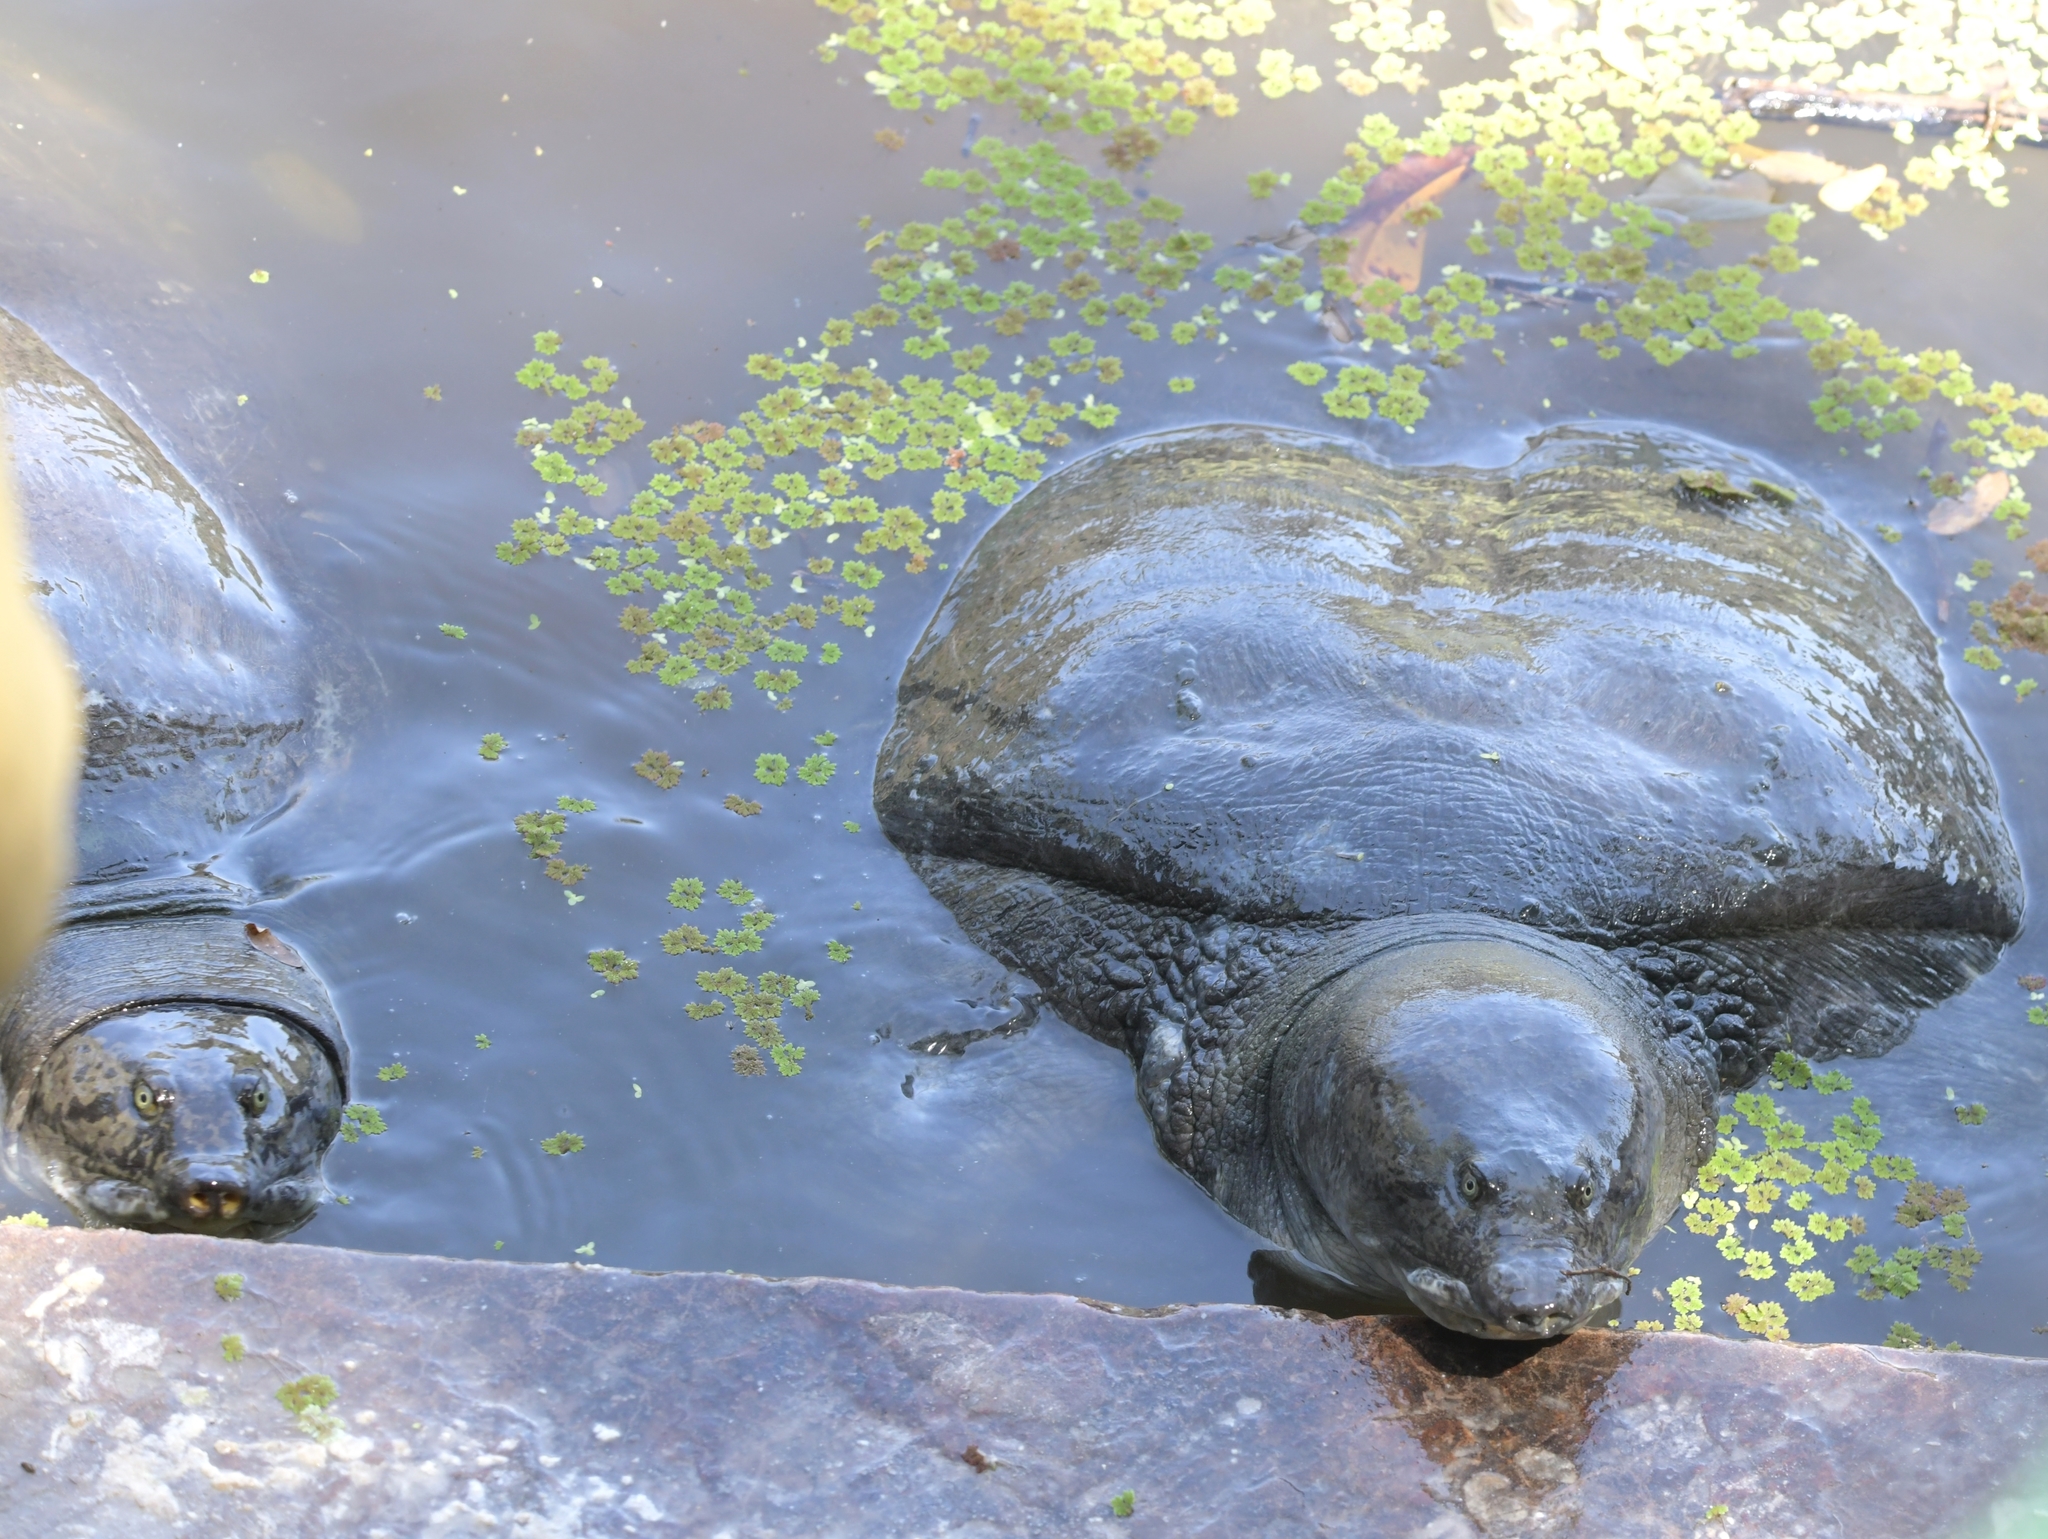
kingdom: Animalia
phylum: Chordata
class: Testudines
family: Trionychidae
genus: Nilssonia
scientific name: Nilssonia gangetica
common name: Indian softshell turtle
